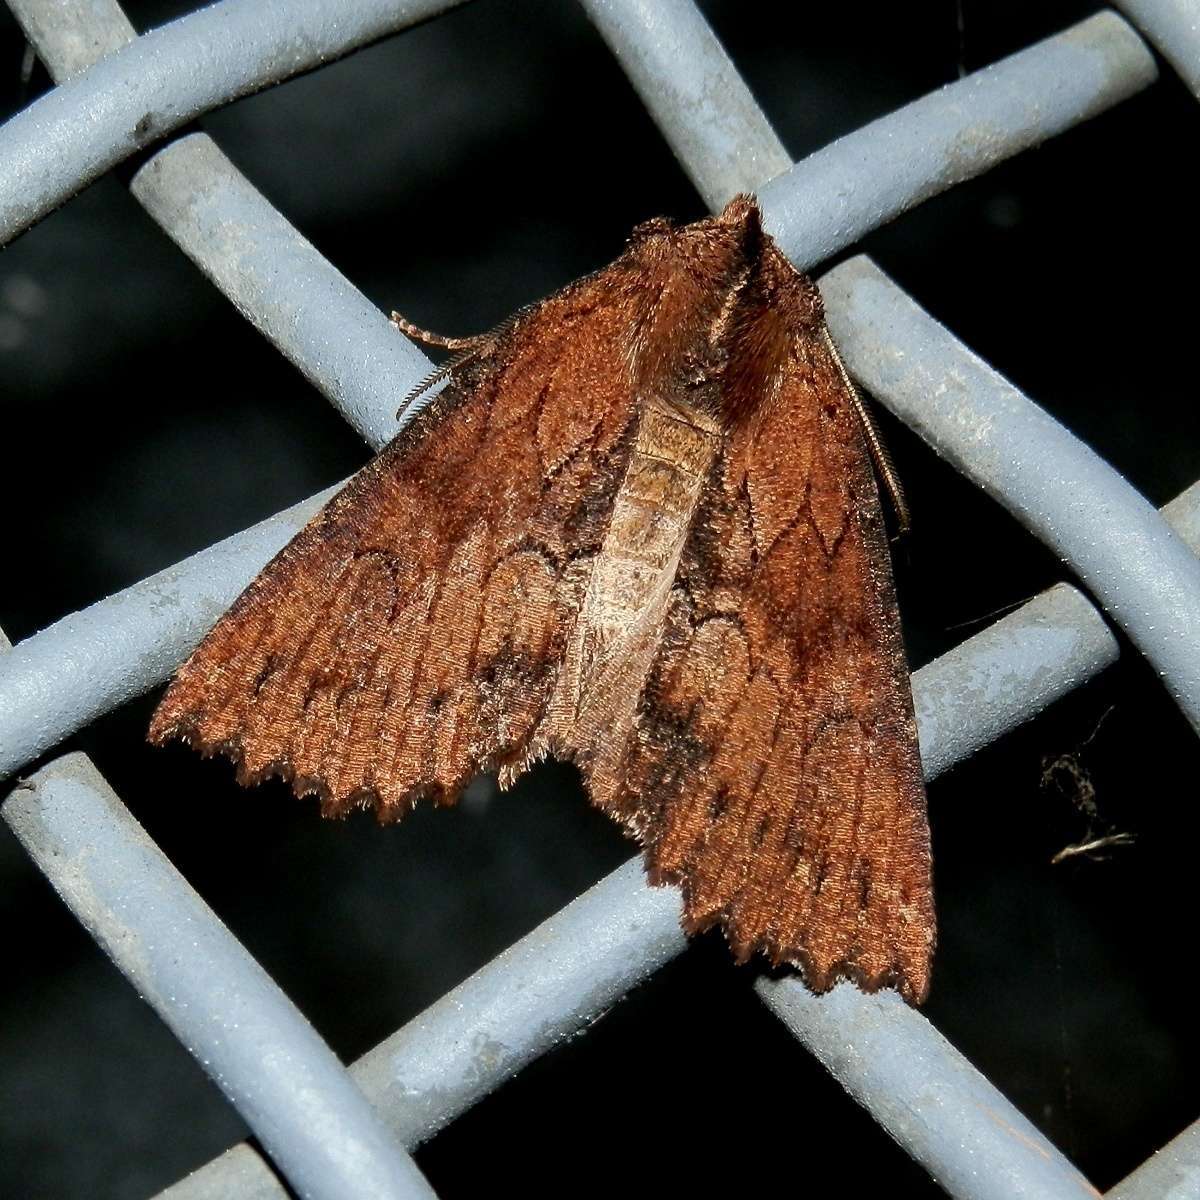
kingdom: Animalia
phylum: Arthropoda
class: Insecta
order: Lepidoptera
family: Geometridae
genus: Nisista
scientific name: Nisista serrata
